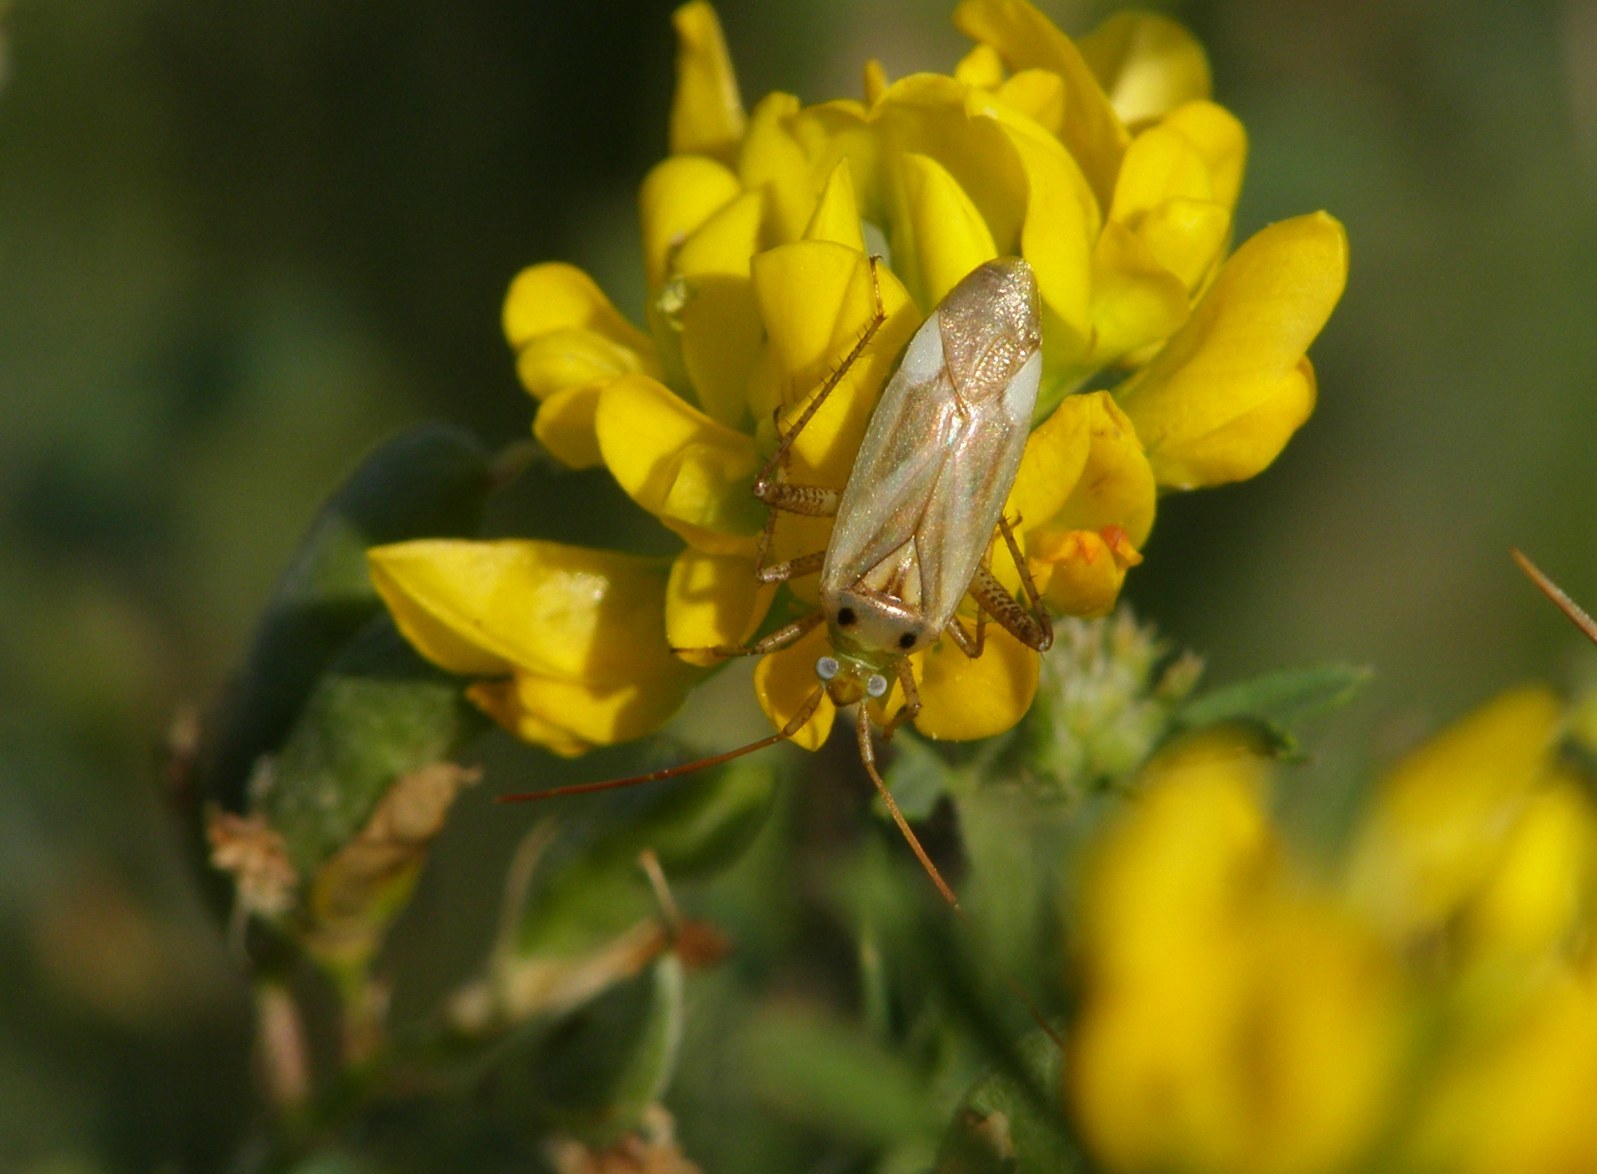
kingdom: Animalia
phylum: Arthropoda
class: Insecta
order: Hemiptera
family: Miridae
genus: Adelphocoris
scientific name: Adelphocoris lineolatus
